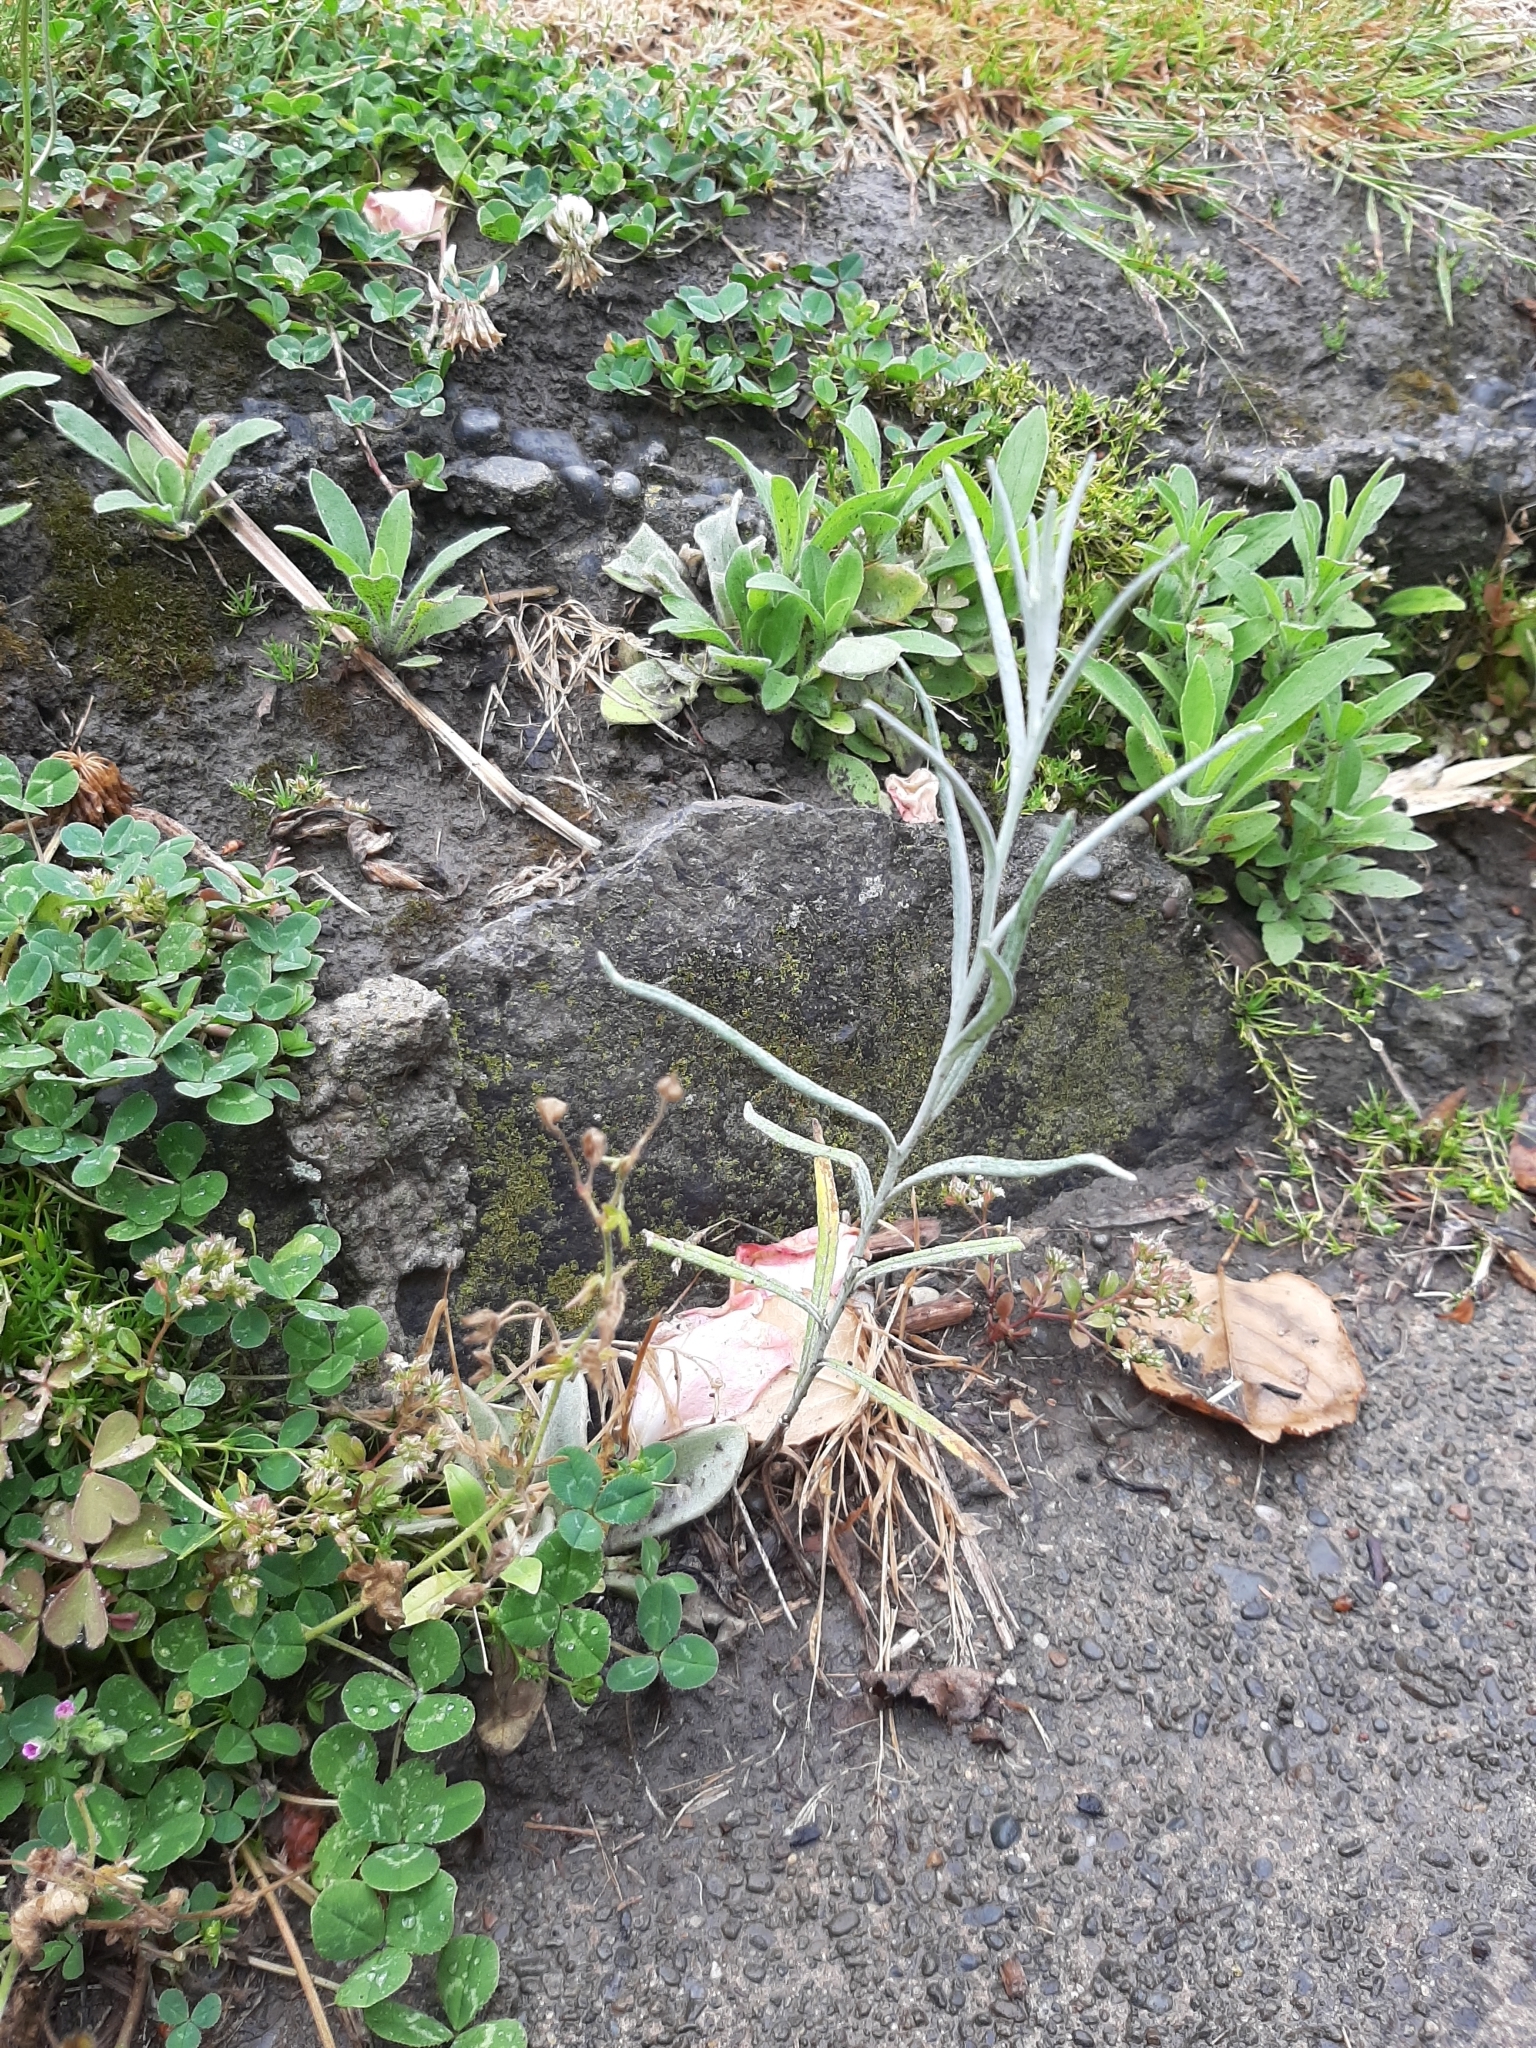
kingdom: Plantae
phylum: Tracheophyta
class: Magnoliopsida
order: Asterales
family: Asteraceae
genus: Senecio
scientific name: Senecio quadridentatus
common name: Cotton fireweed
